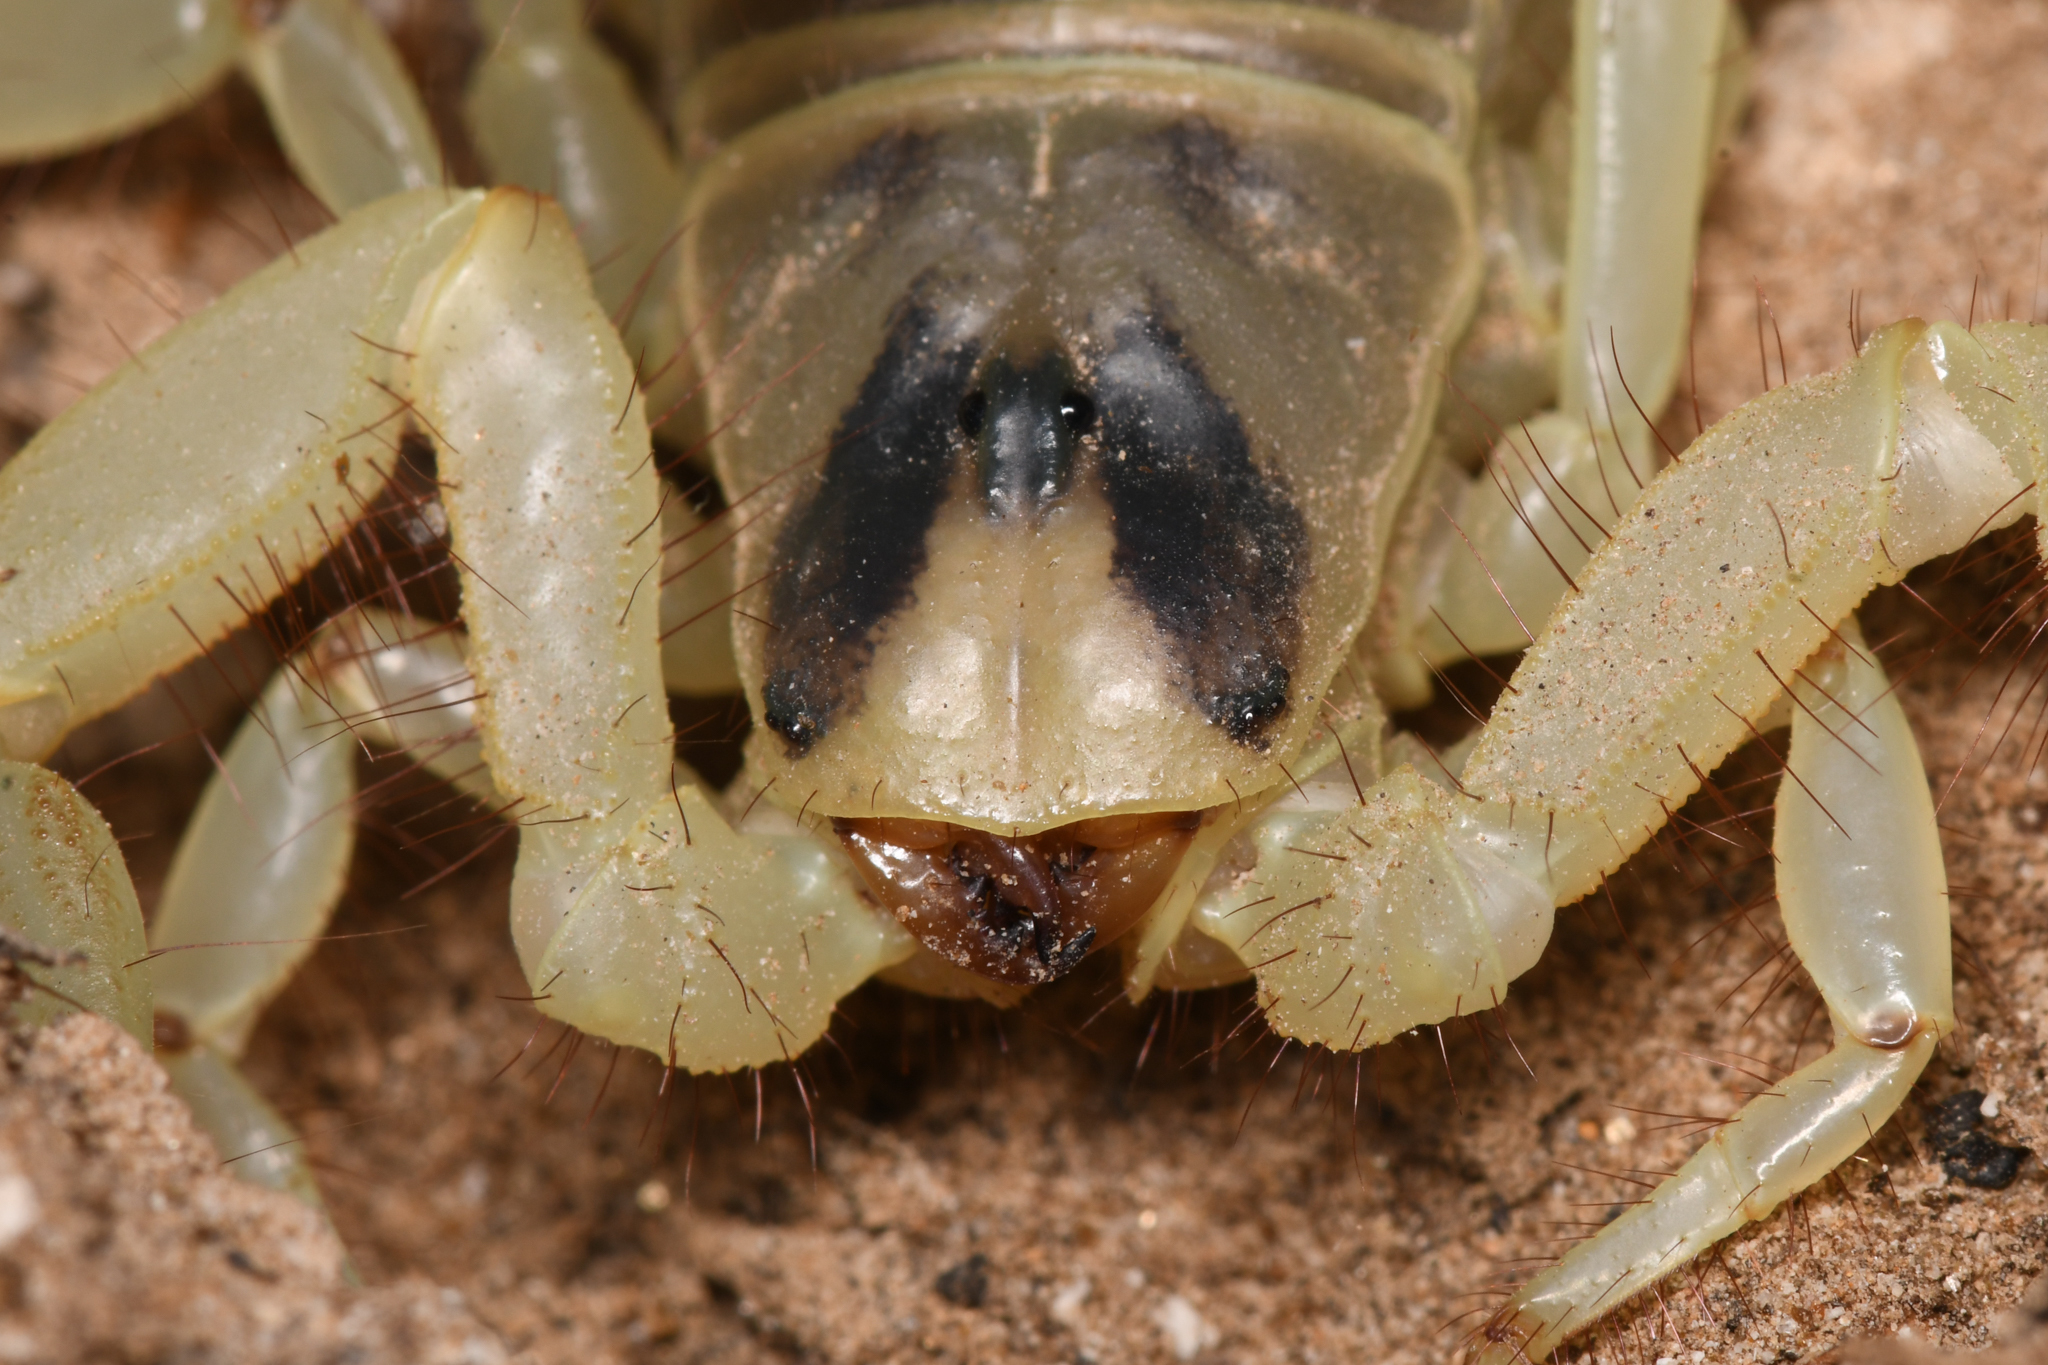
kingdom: Animalia
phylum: Arthropoda
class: Arachnida
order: Scorpiones
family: Hadruridae
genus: Hadrurus
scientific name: Hadrurus anzaborrego
